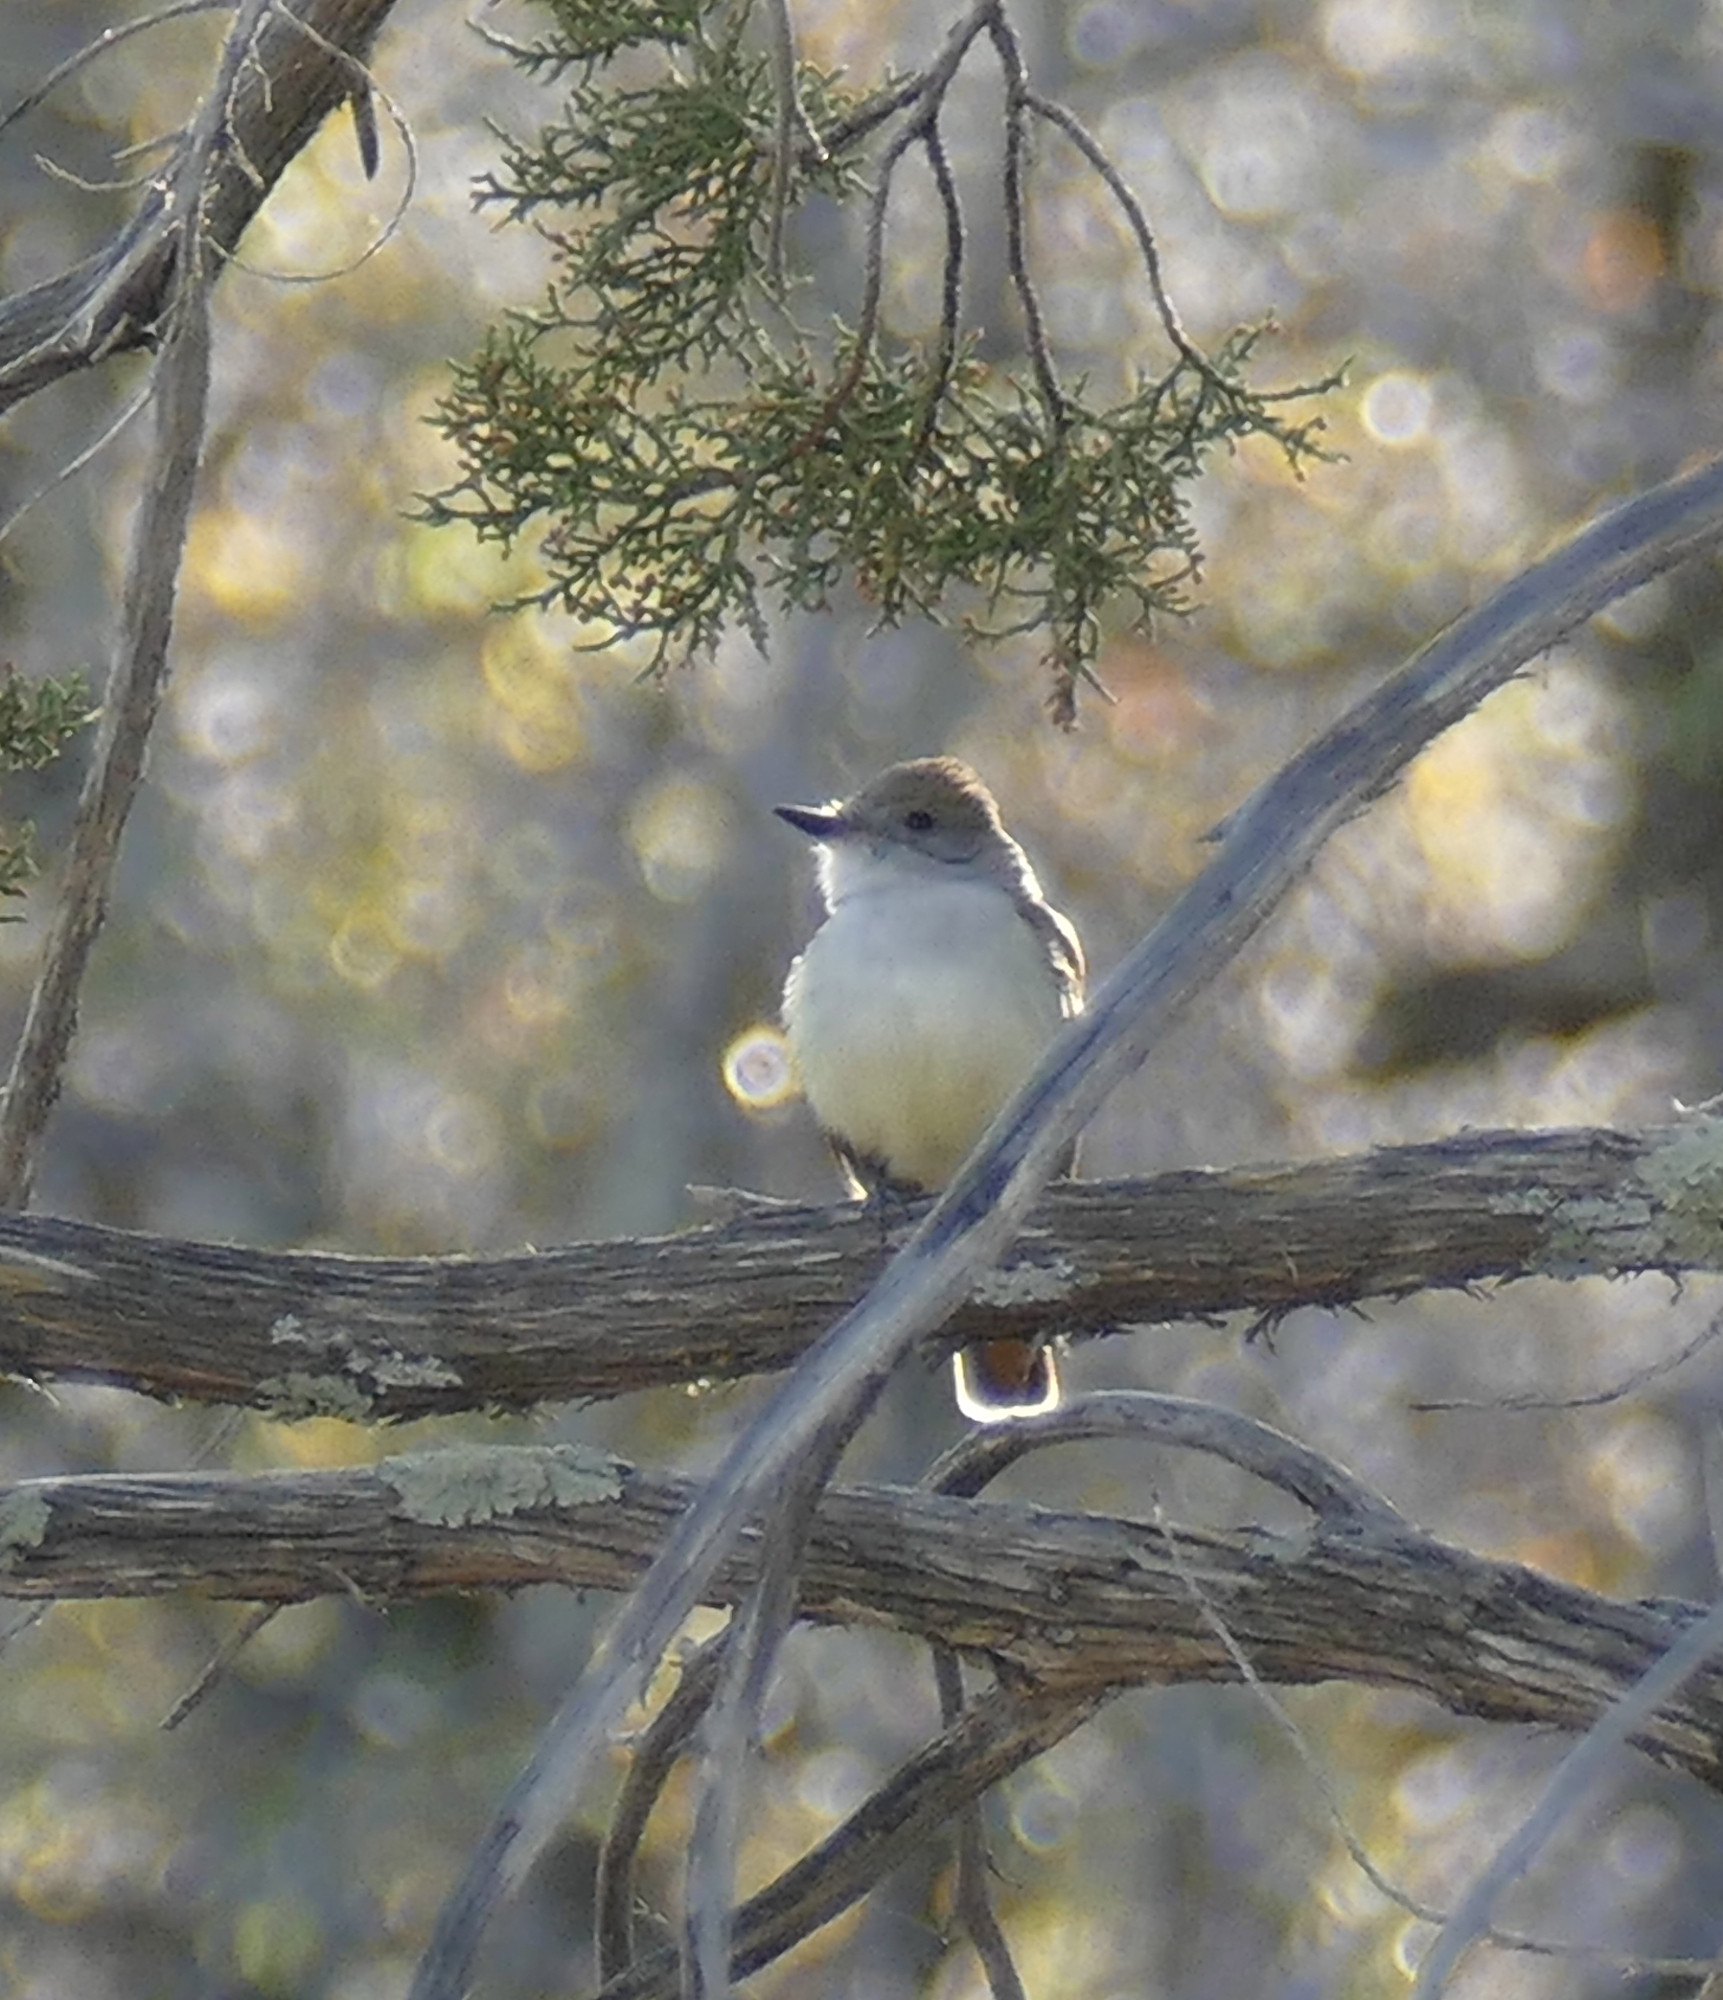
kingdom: Animalia
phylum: Chordata
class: Aves
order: Passeriformes
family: Tyrannidae
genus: Myiarchus
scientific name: Myiarchus cinerascens
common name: Ash-throated flycatcher
